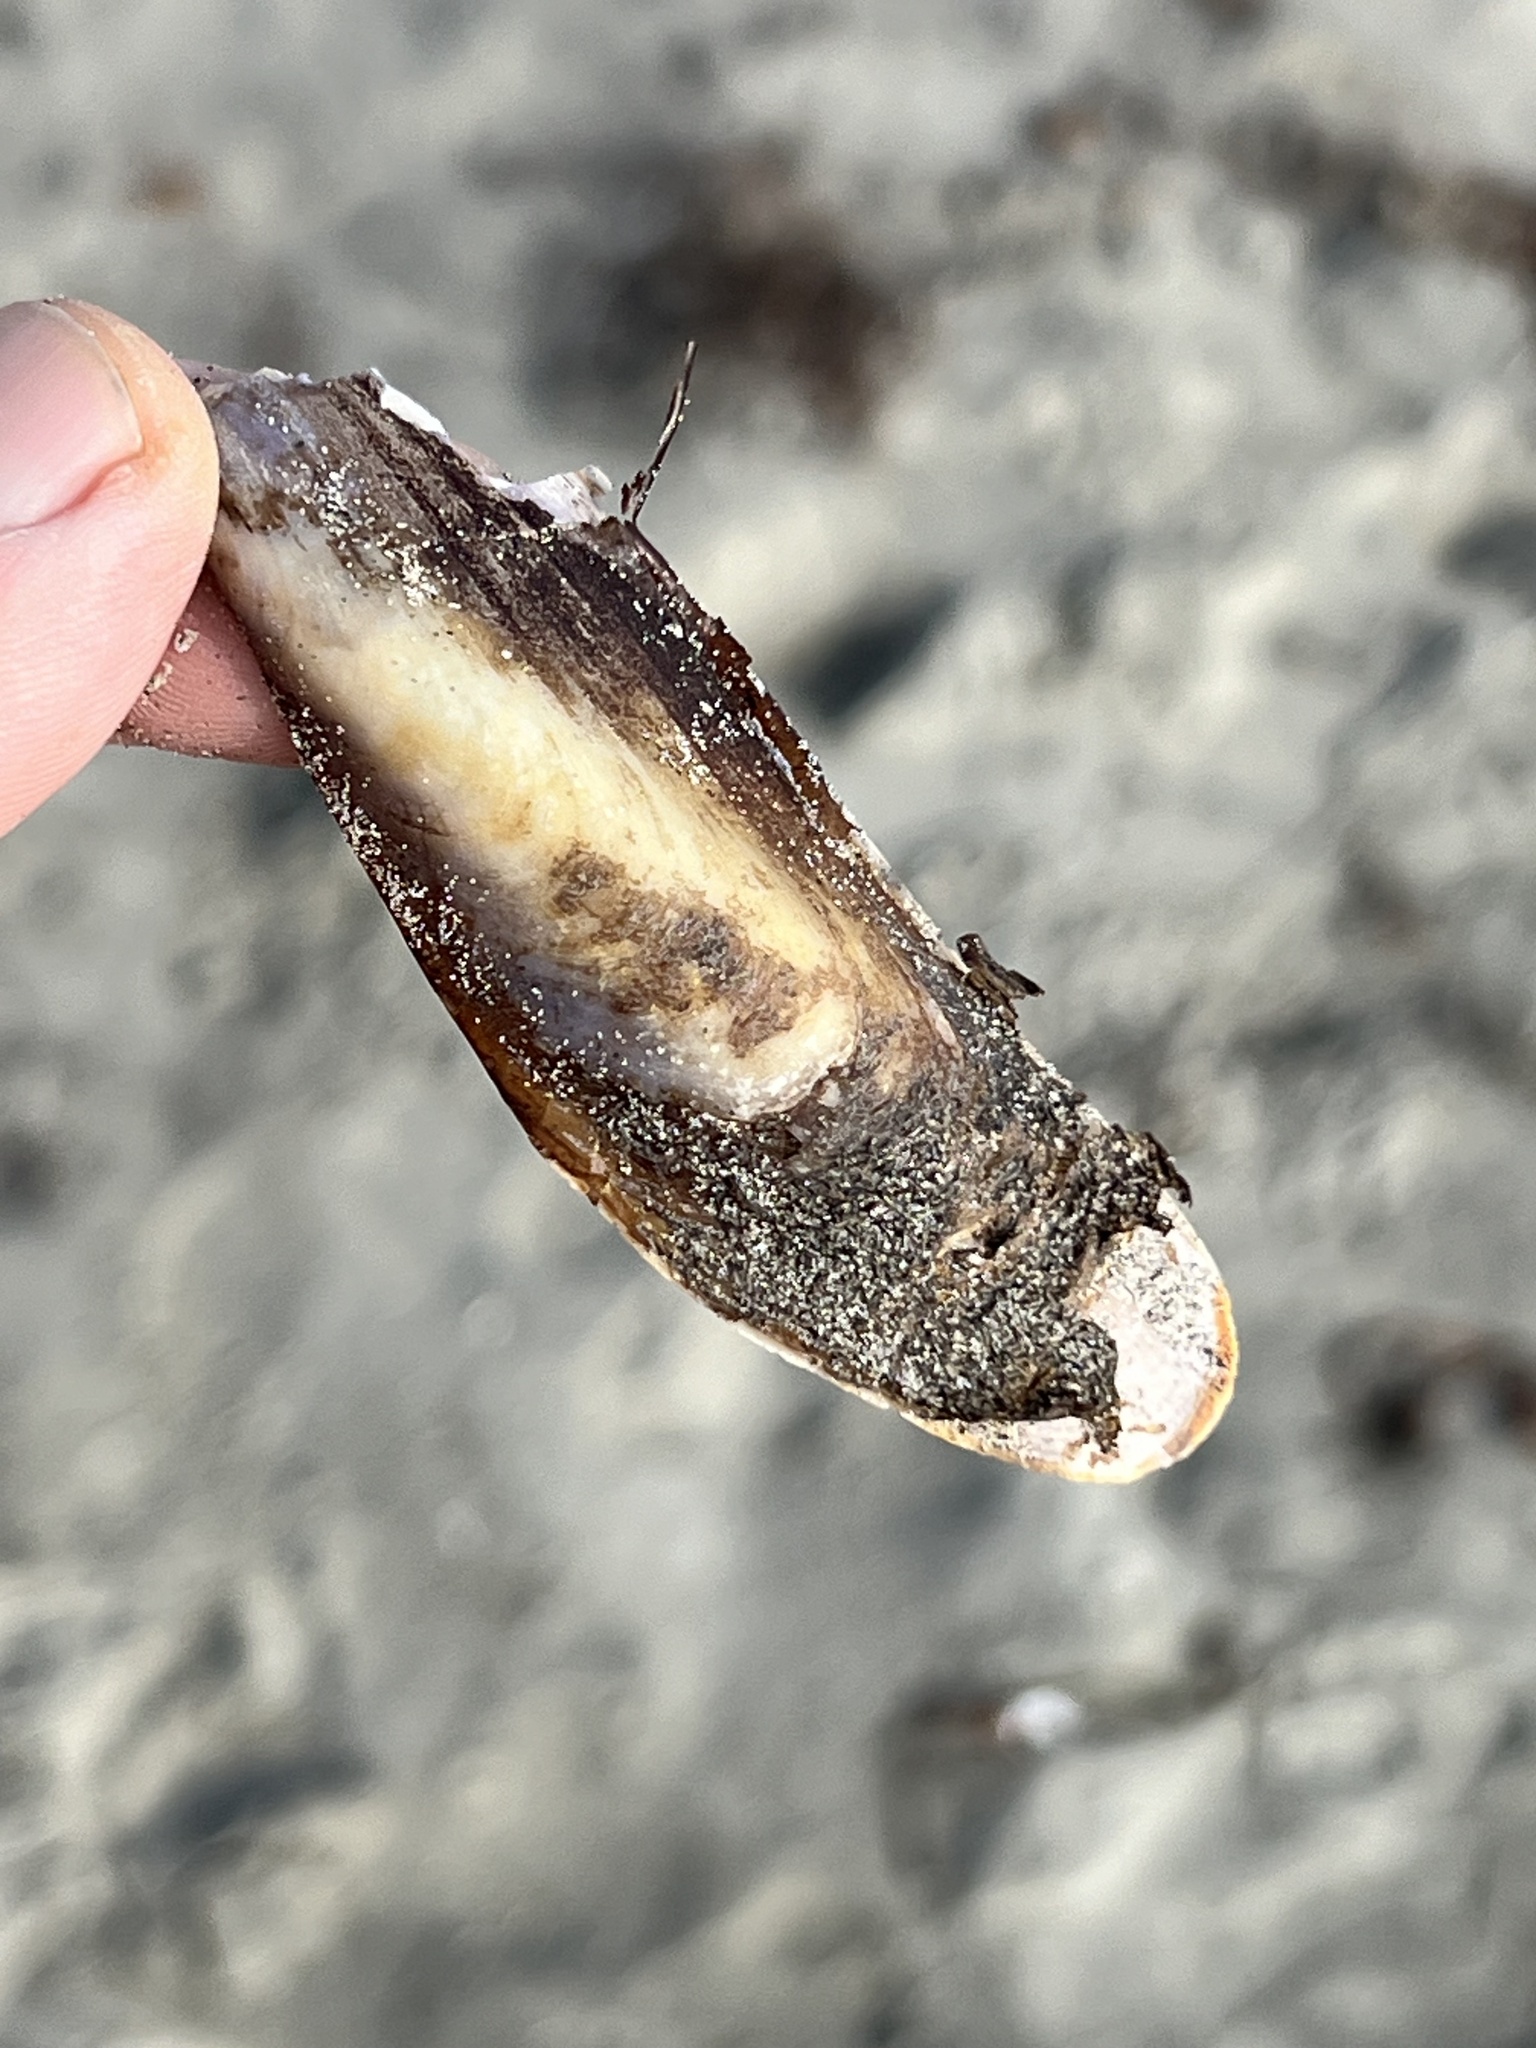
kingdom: Animalia
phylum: Mollusca
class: Bivalvia
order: Mytilida
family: Mytilidae
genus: Modiolus
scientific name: Modiolus rectus
